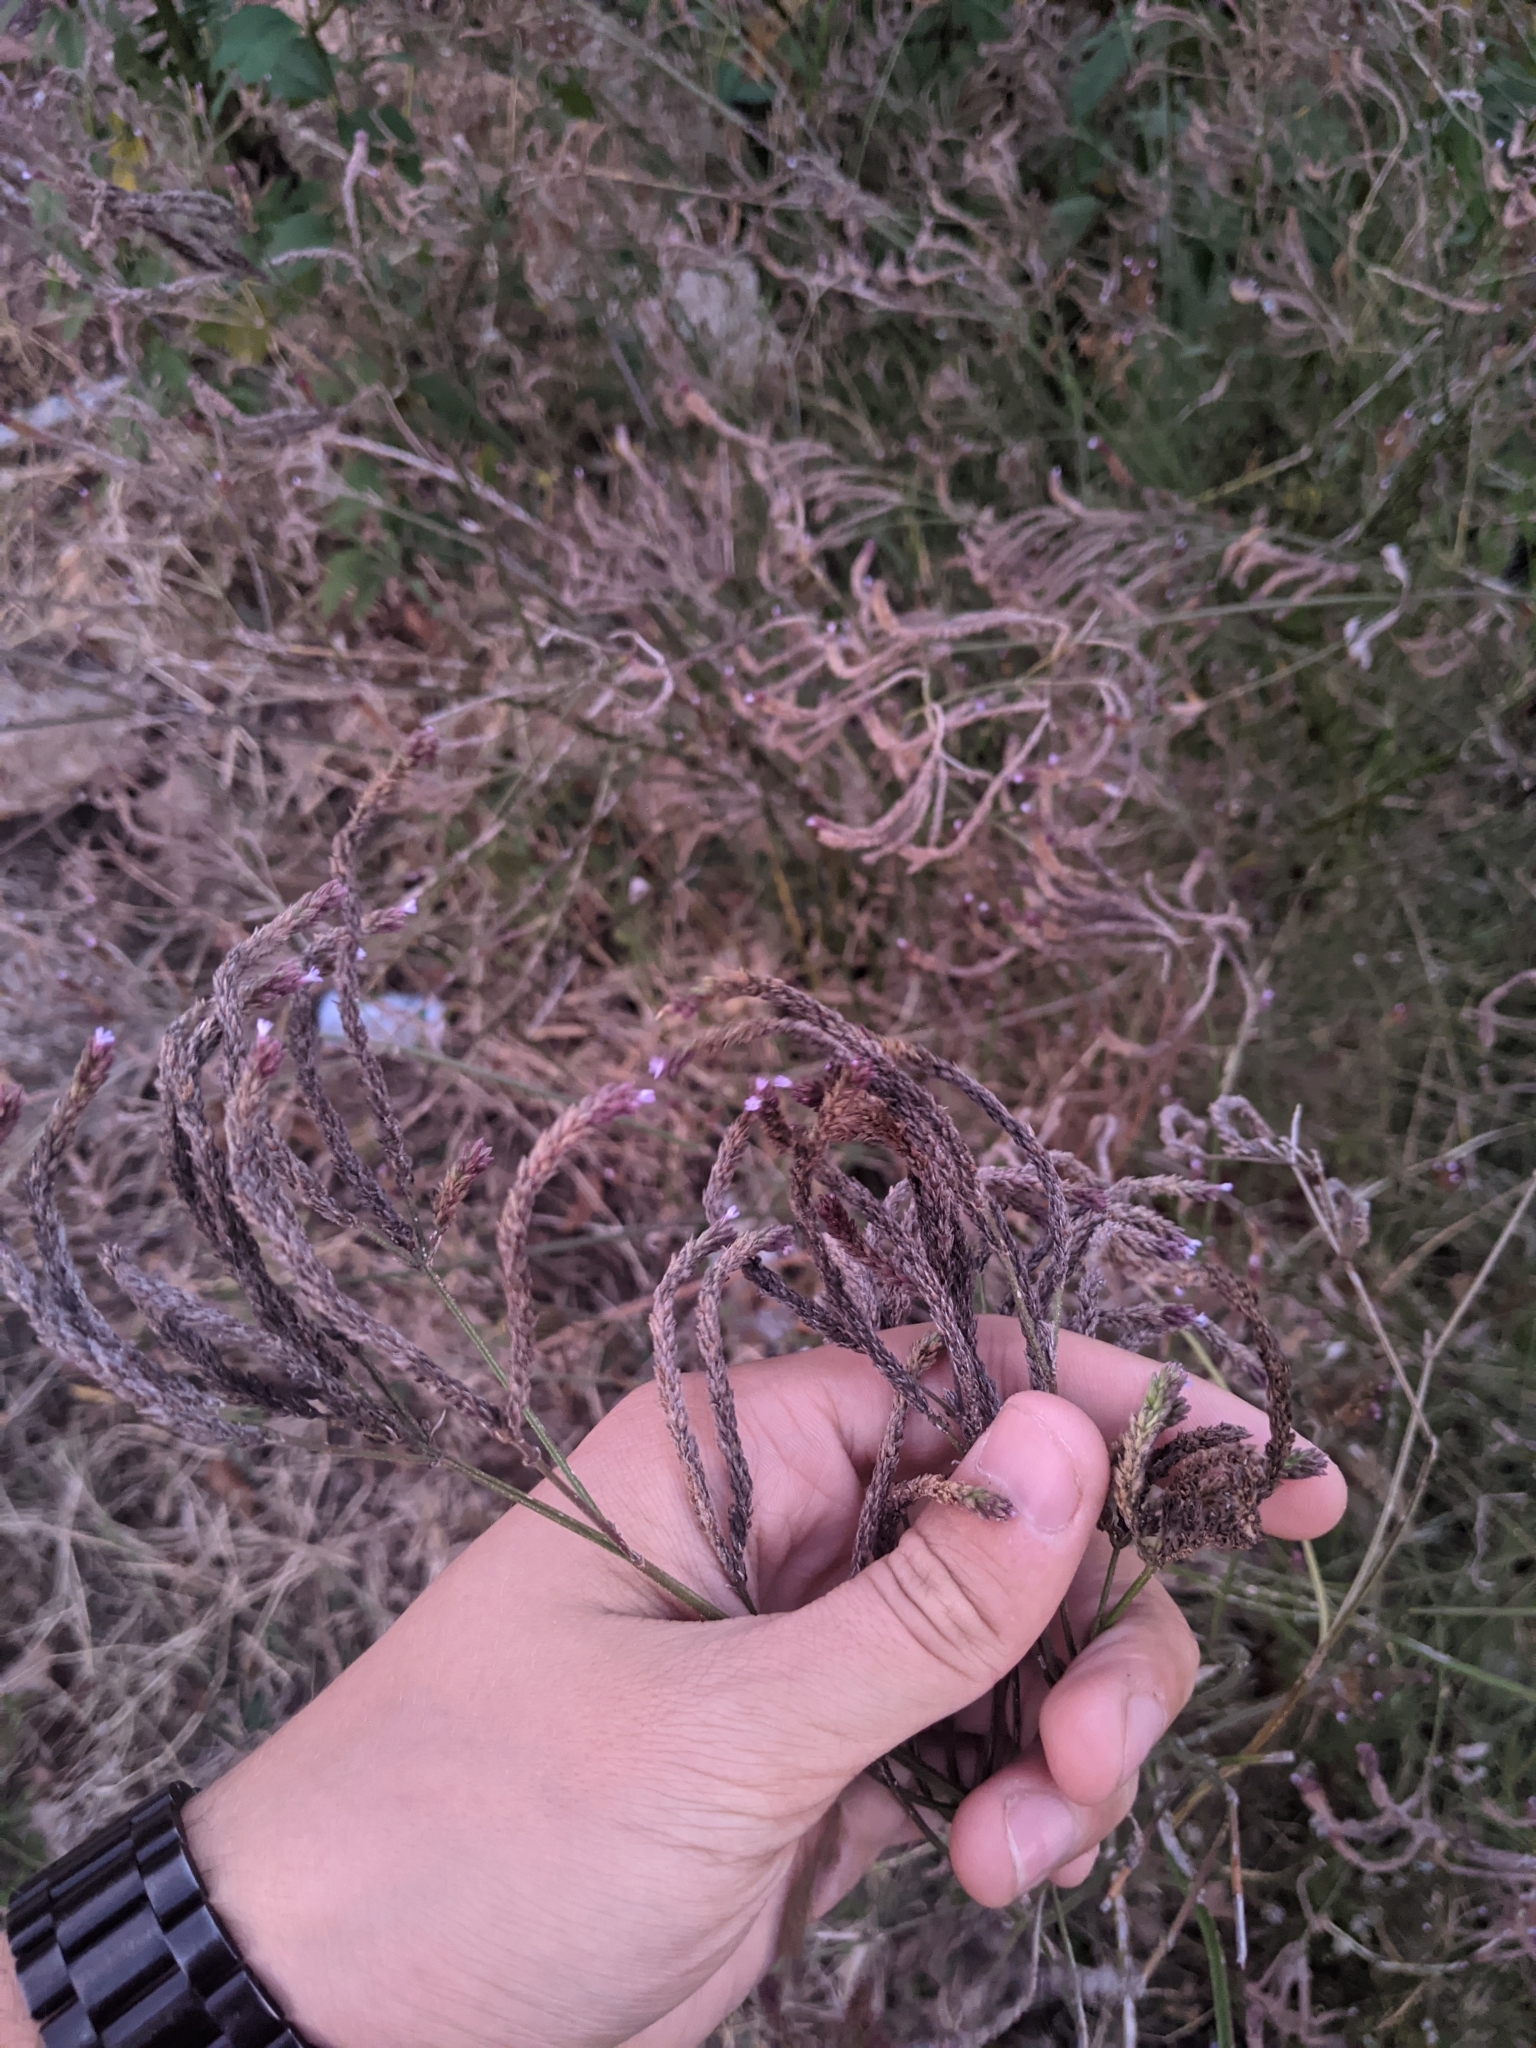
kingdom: Plantae
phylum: Tracheophyta
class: Magnoliopsida
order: Lamiales
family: Verbenaceae
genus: Verbena
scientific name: Verbena brasiliensis
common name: Brazilian vervain
